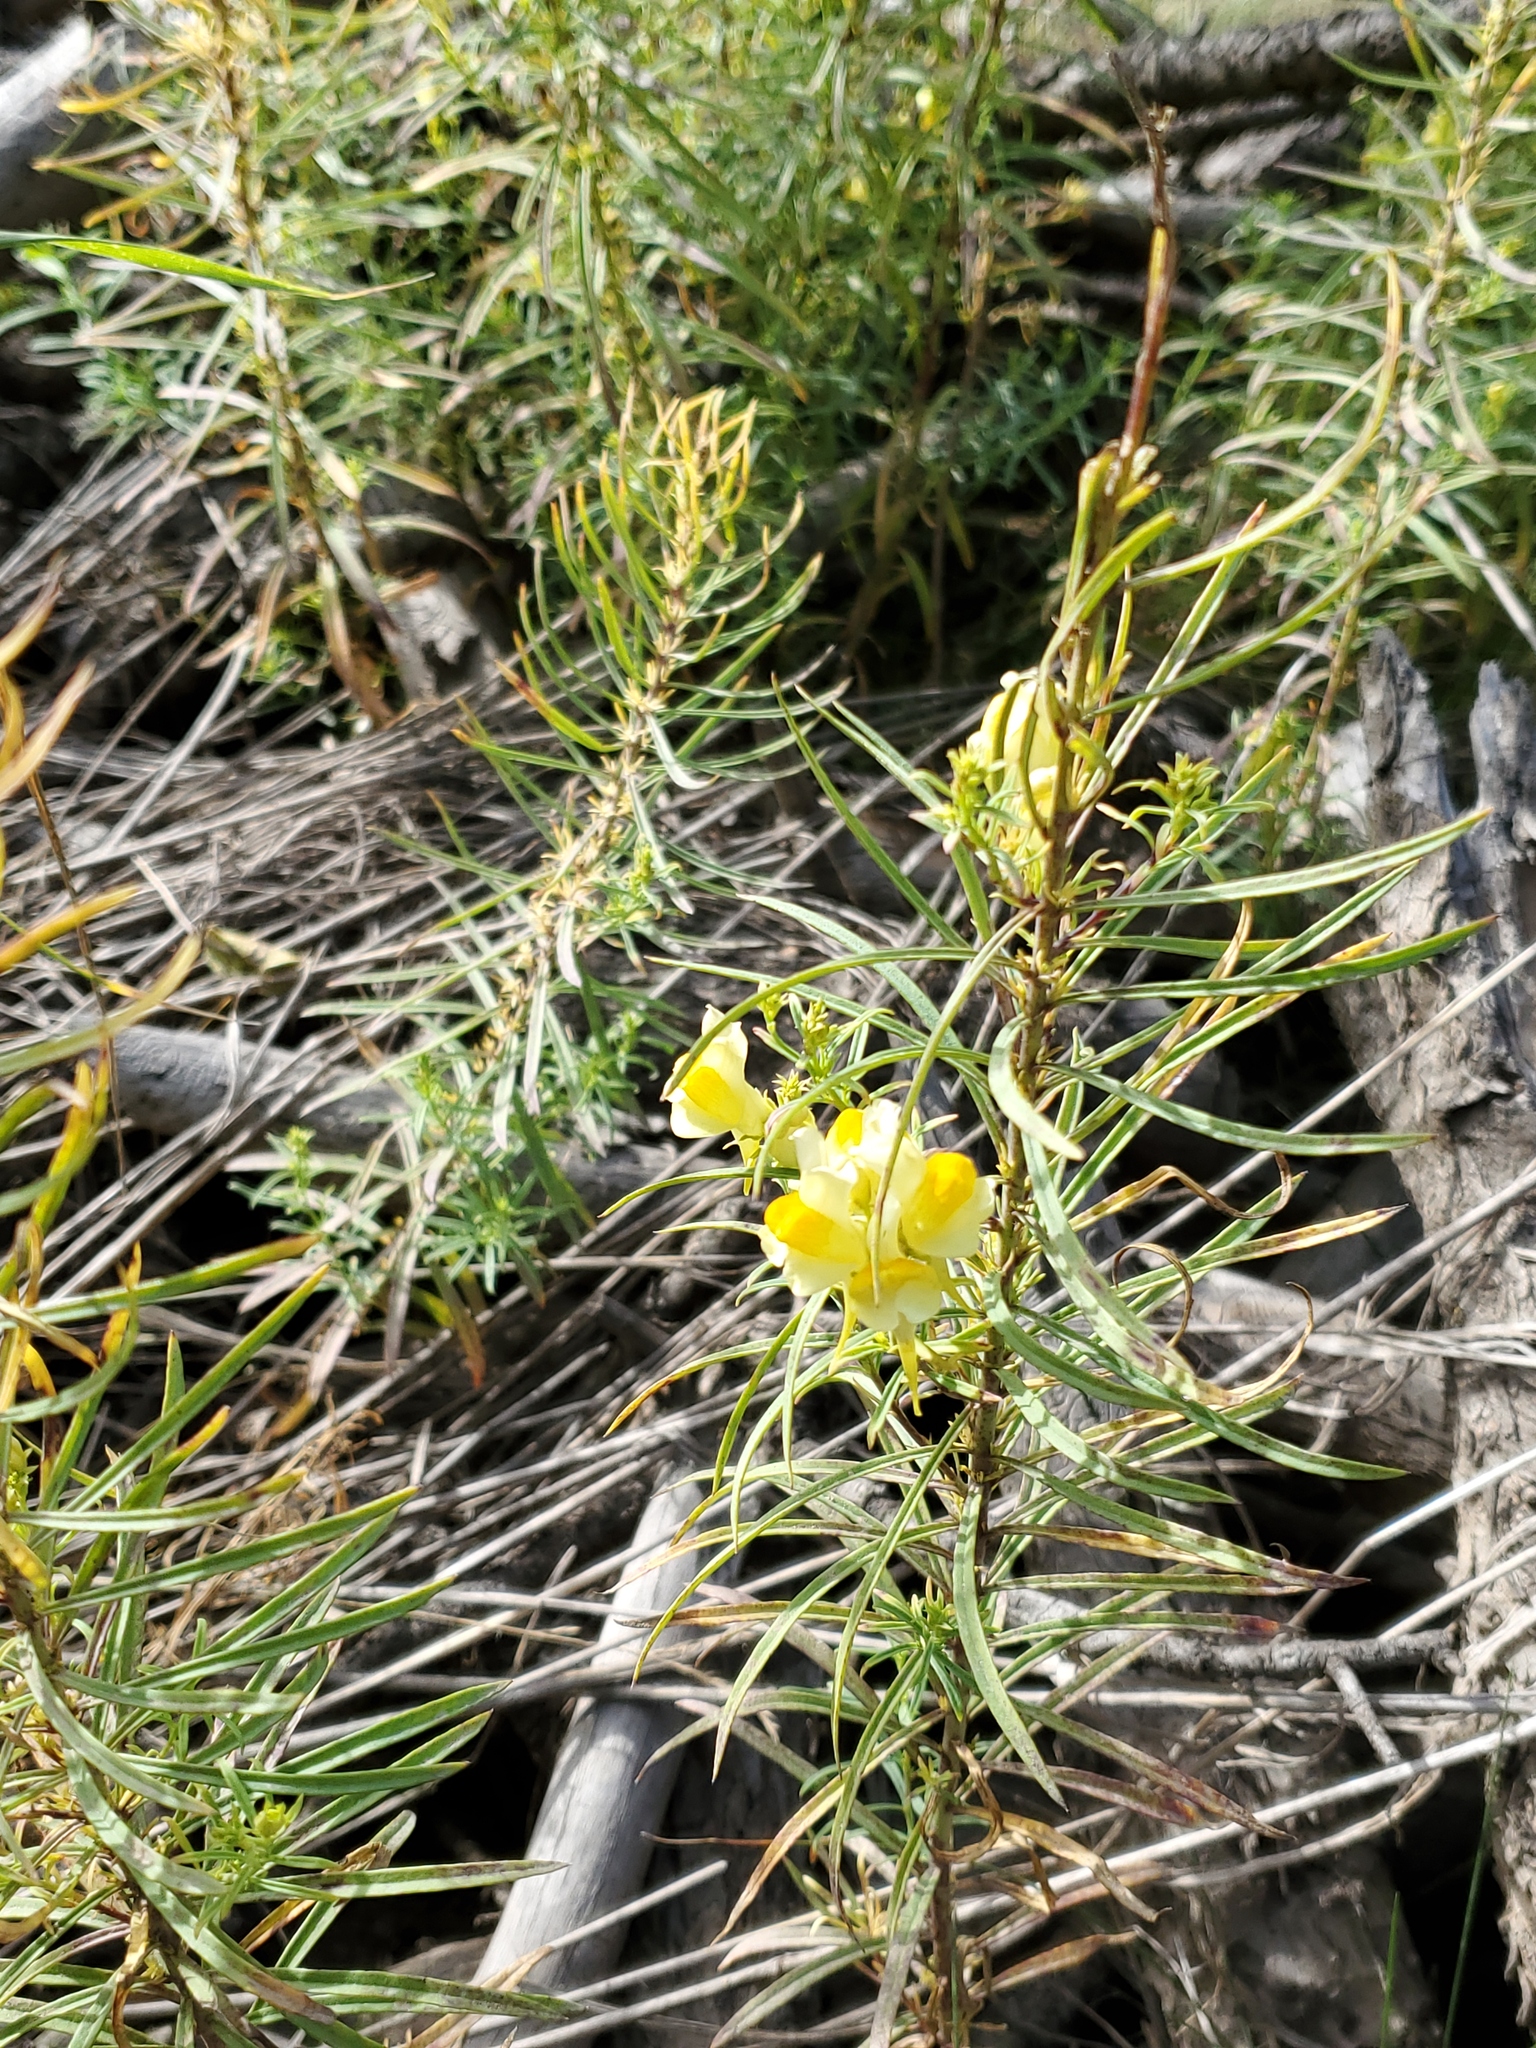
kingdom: Plantae
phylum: Tracheophyta
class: Magnoliopsida
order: Lamiales
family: Plantaginaceae
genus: Linaria
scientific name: Linaria vulgaris
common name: Butter and eggs
